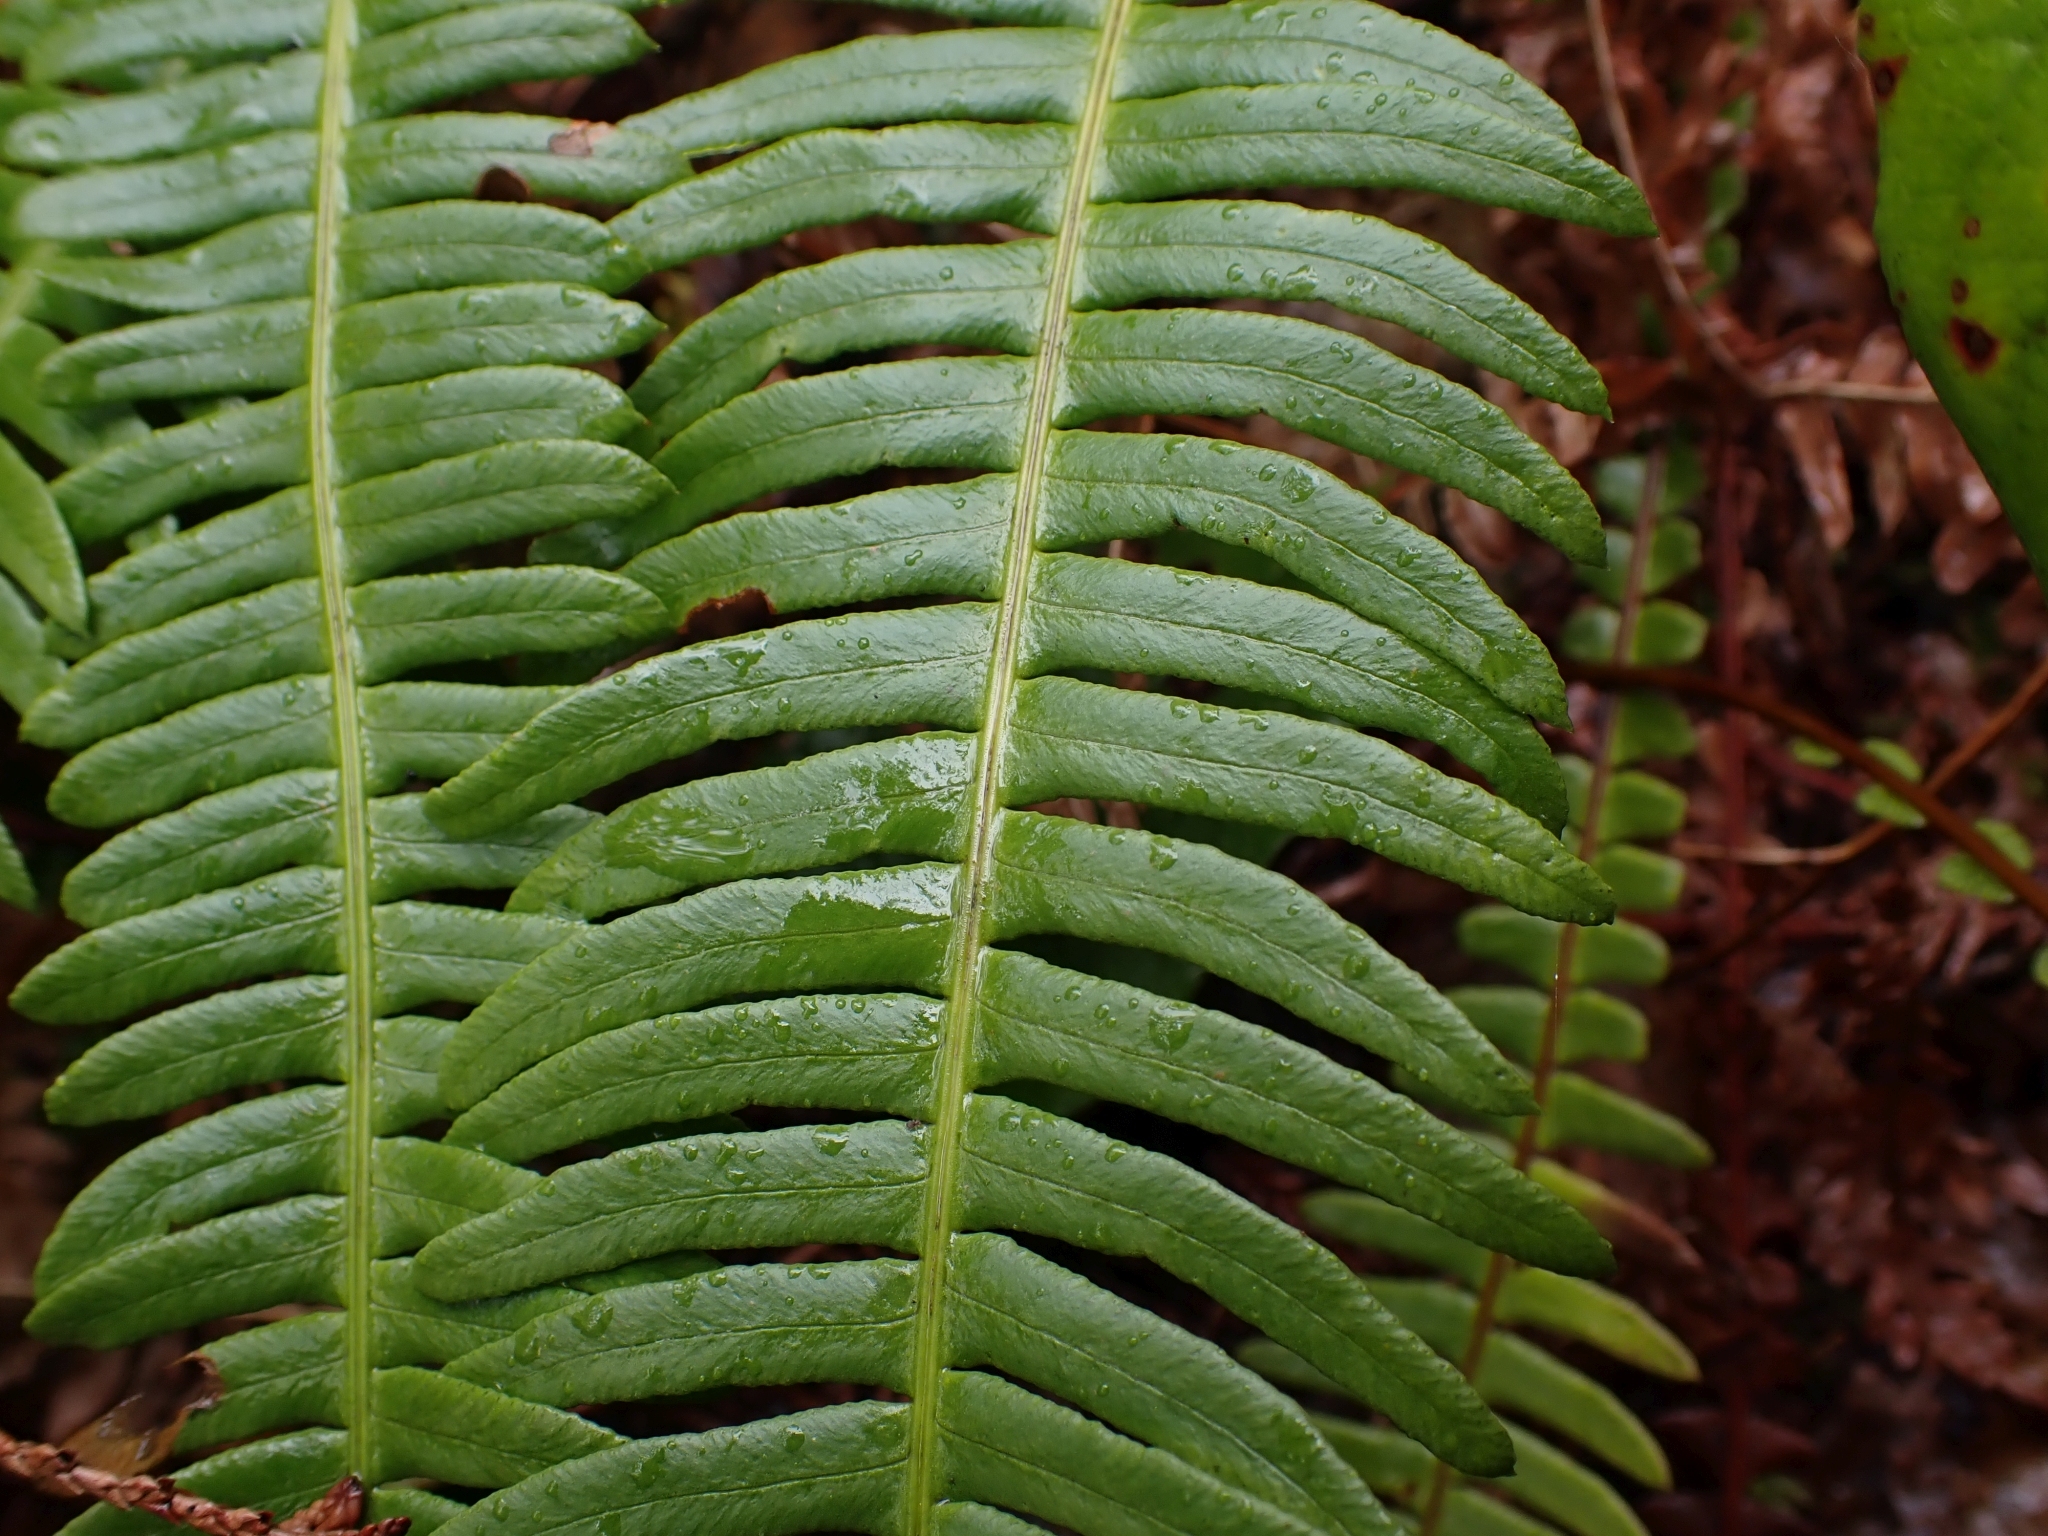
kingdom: Plantae
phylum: Tracheophyta
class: Polypodiopsida
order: Polypodiales
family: Blechnaceae
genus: Struthiopteris
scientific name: Struthiopteris spicant
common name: Deer fern
